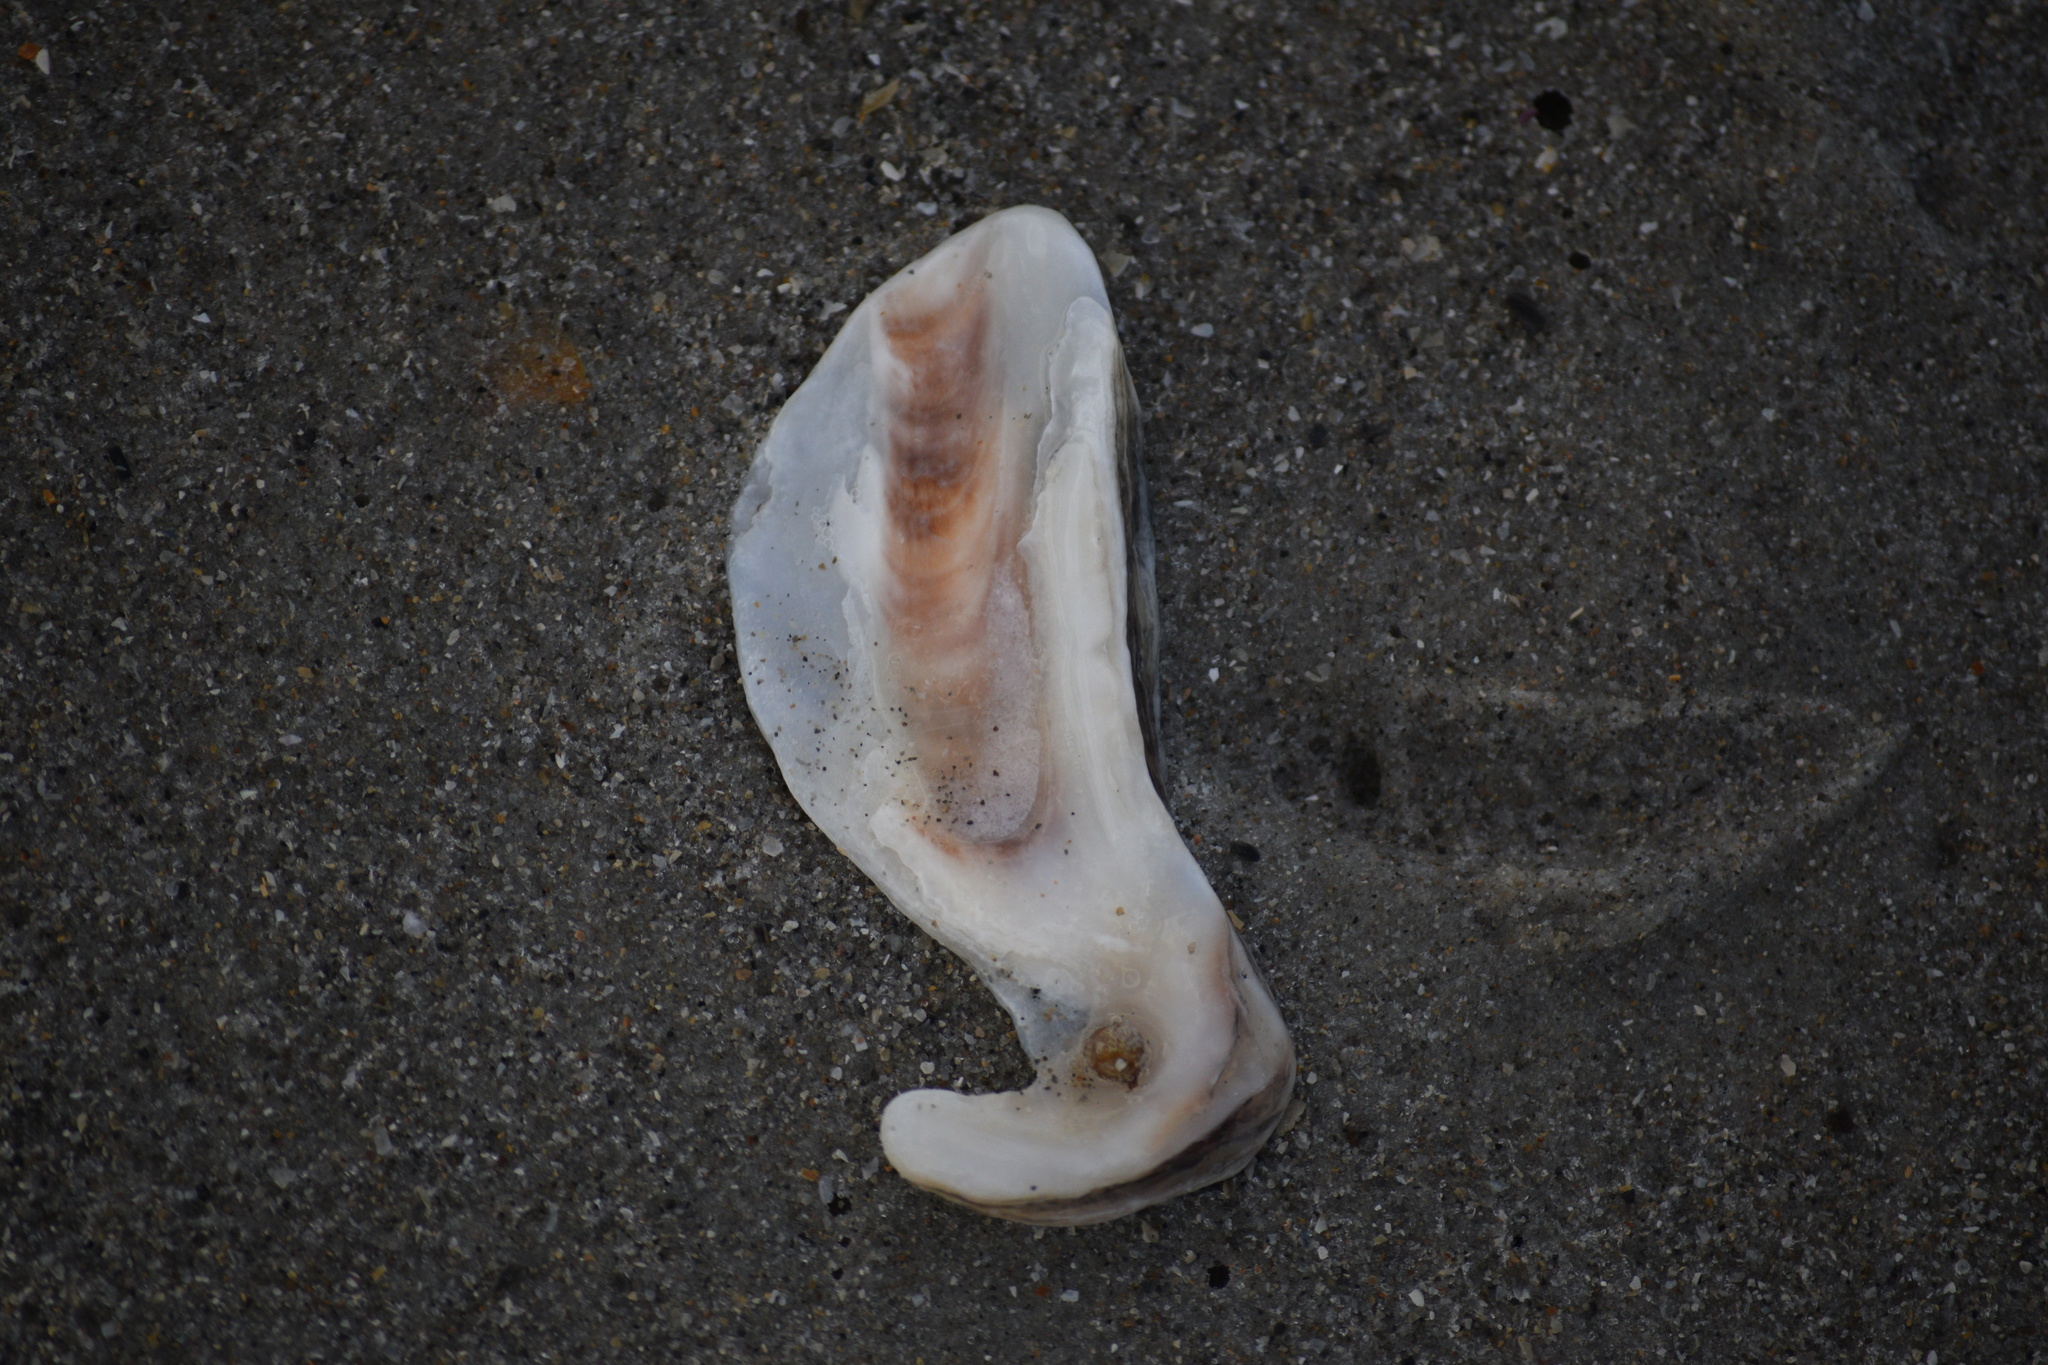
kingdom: Animalia
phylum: Mollusca
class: Bivalvia
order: Ostreida
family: Ostreidae
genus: Crassostrea
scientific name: Crassostrea virginica
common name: American oyster
